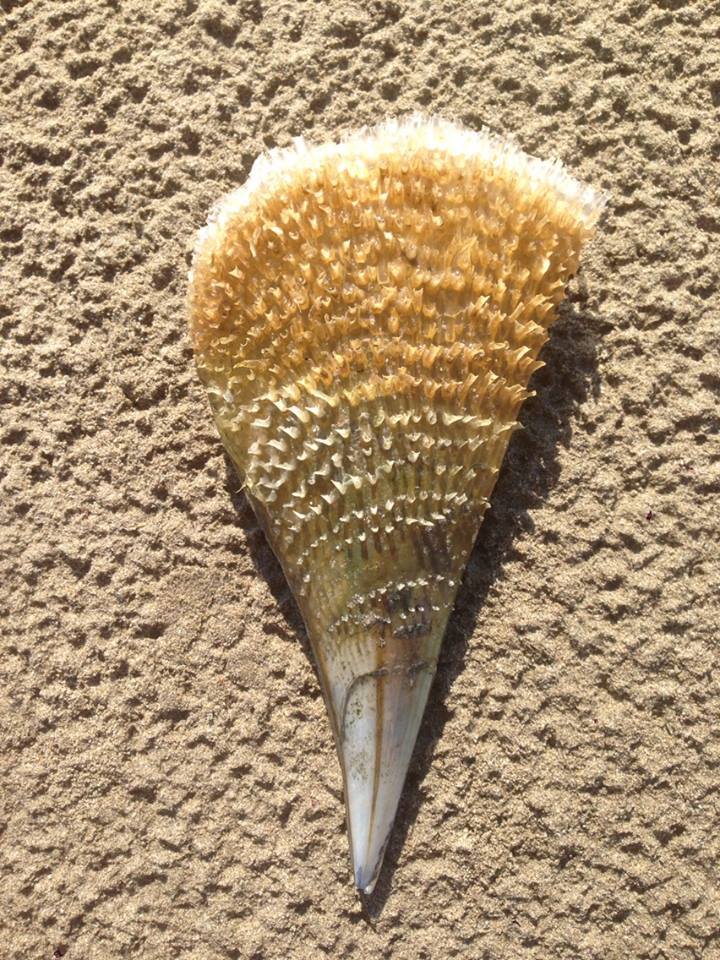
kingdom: Animalia
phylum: Mollusca
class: Bivalvia
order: Ostreida
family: Pinnidae
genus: Pinna
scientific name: Pinna nobilis
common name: Fan mussel
